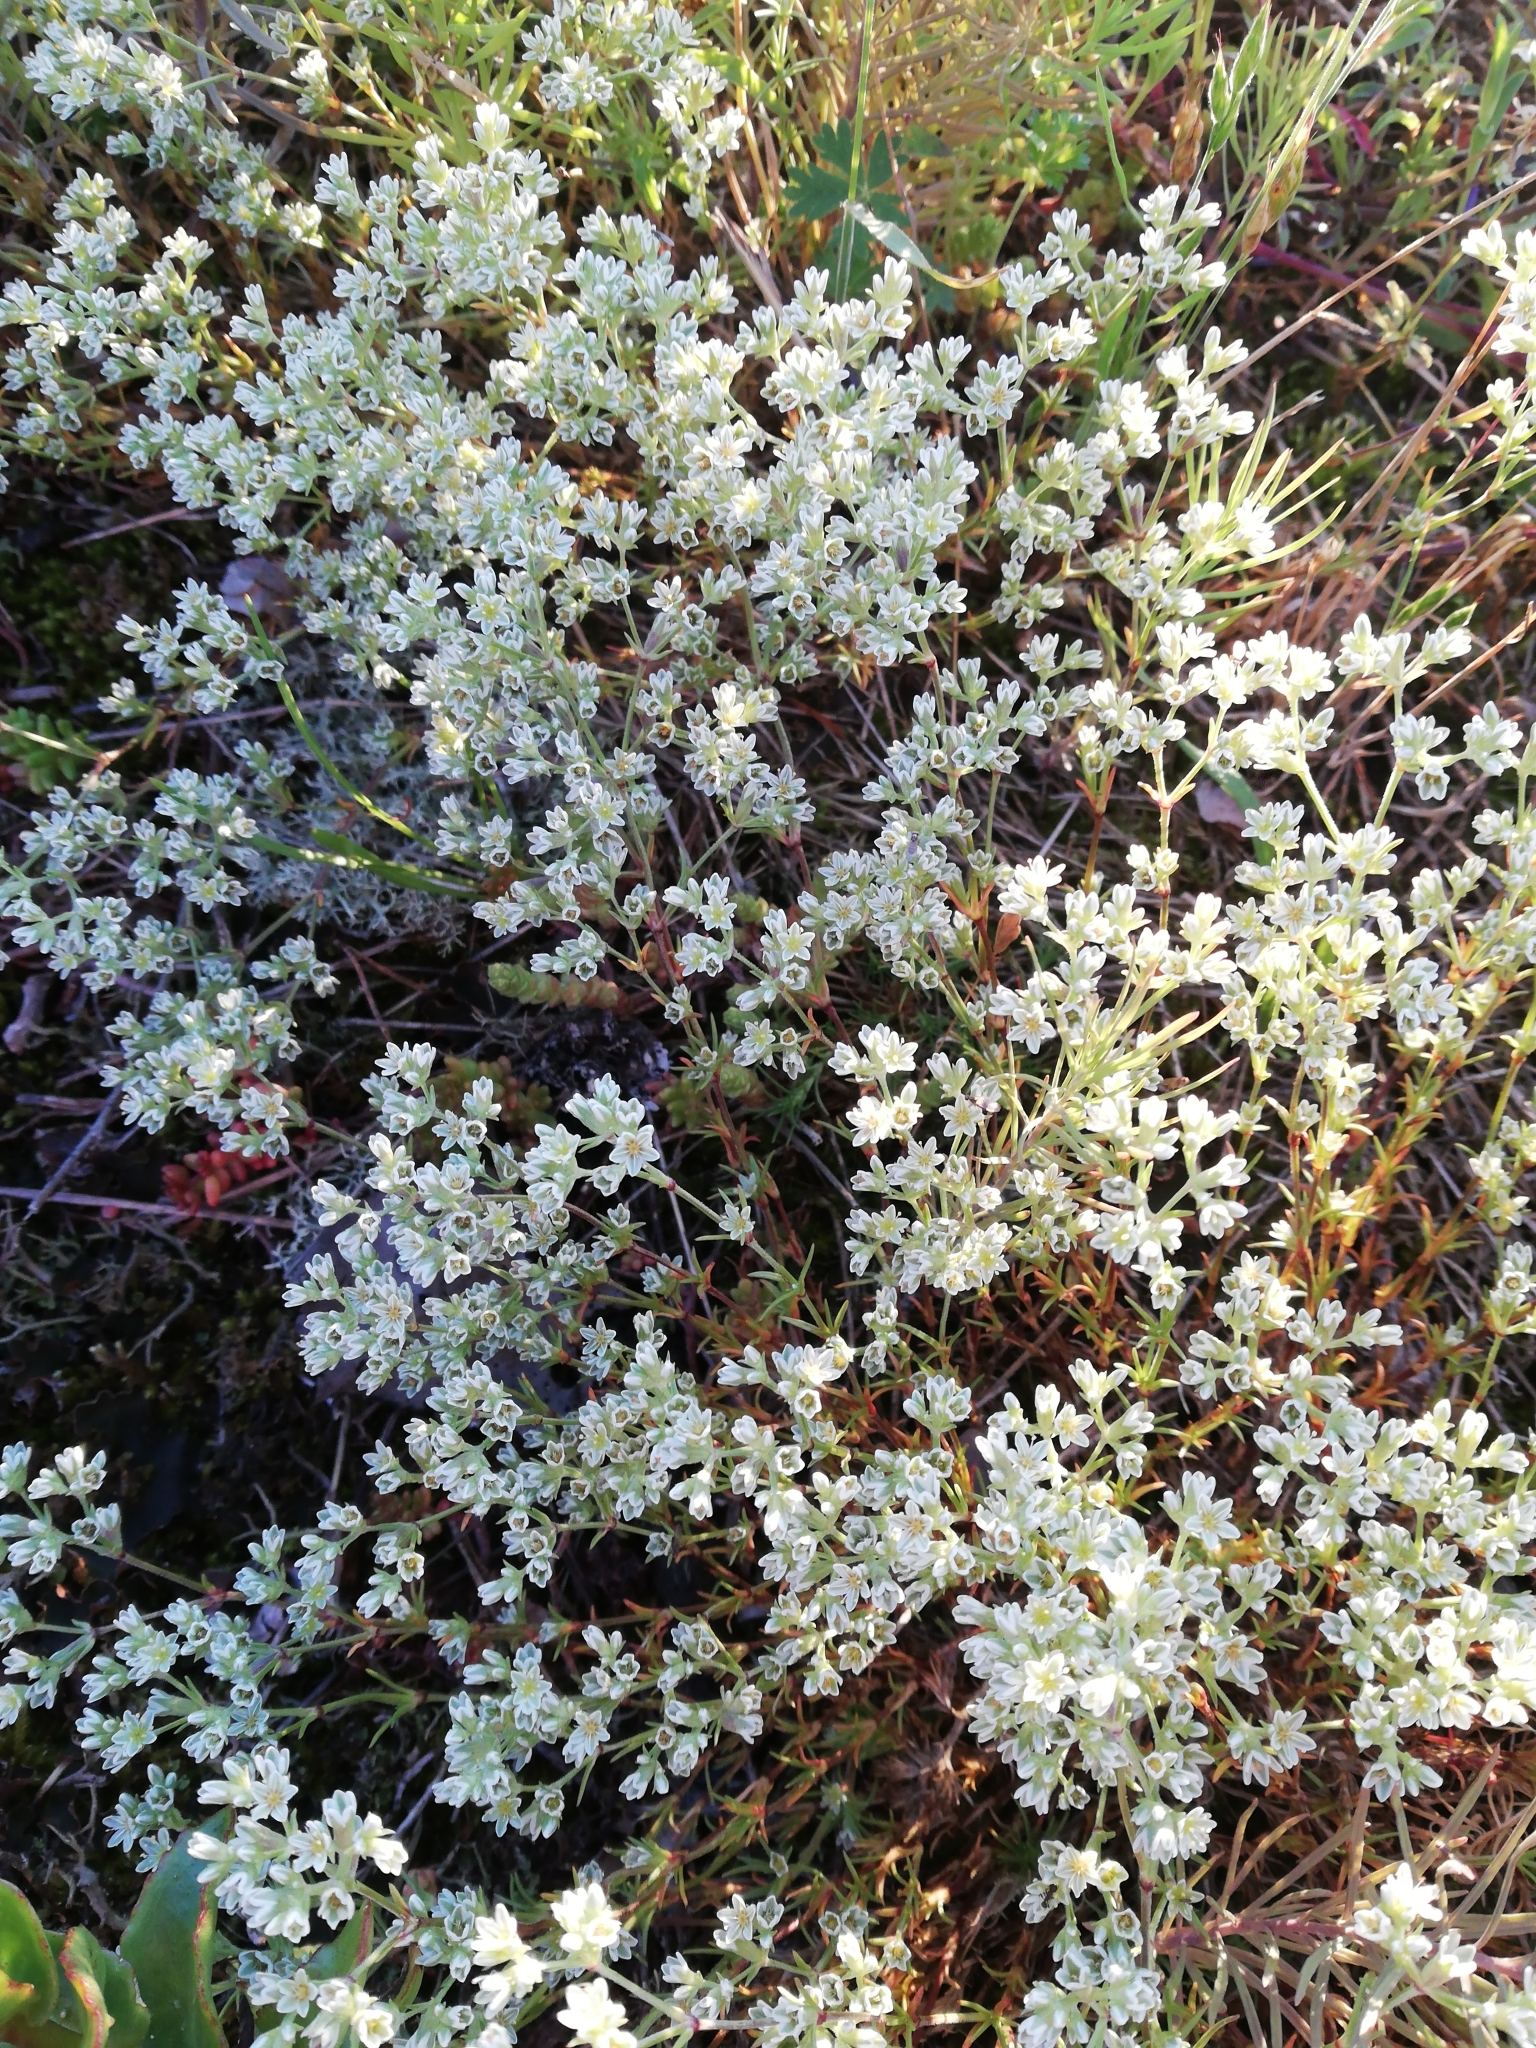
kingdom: Plantae
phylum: Tracheophyta
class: Magnoliopsida
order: Caryophyllales
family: Caryophyllaceae
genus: Scleranthus
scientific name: Scleranthus perennis
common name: Perennial knawel
